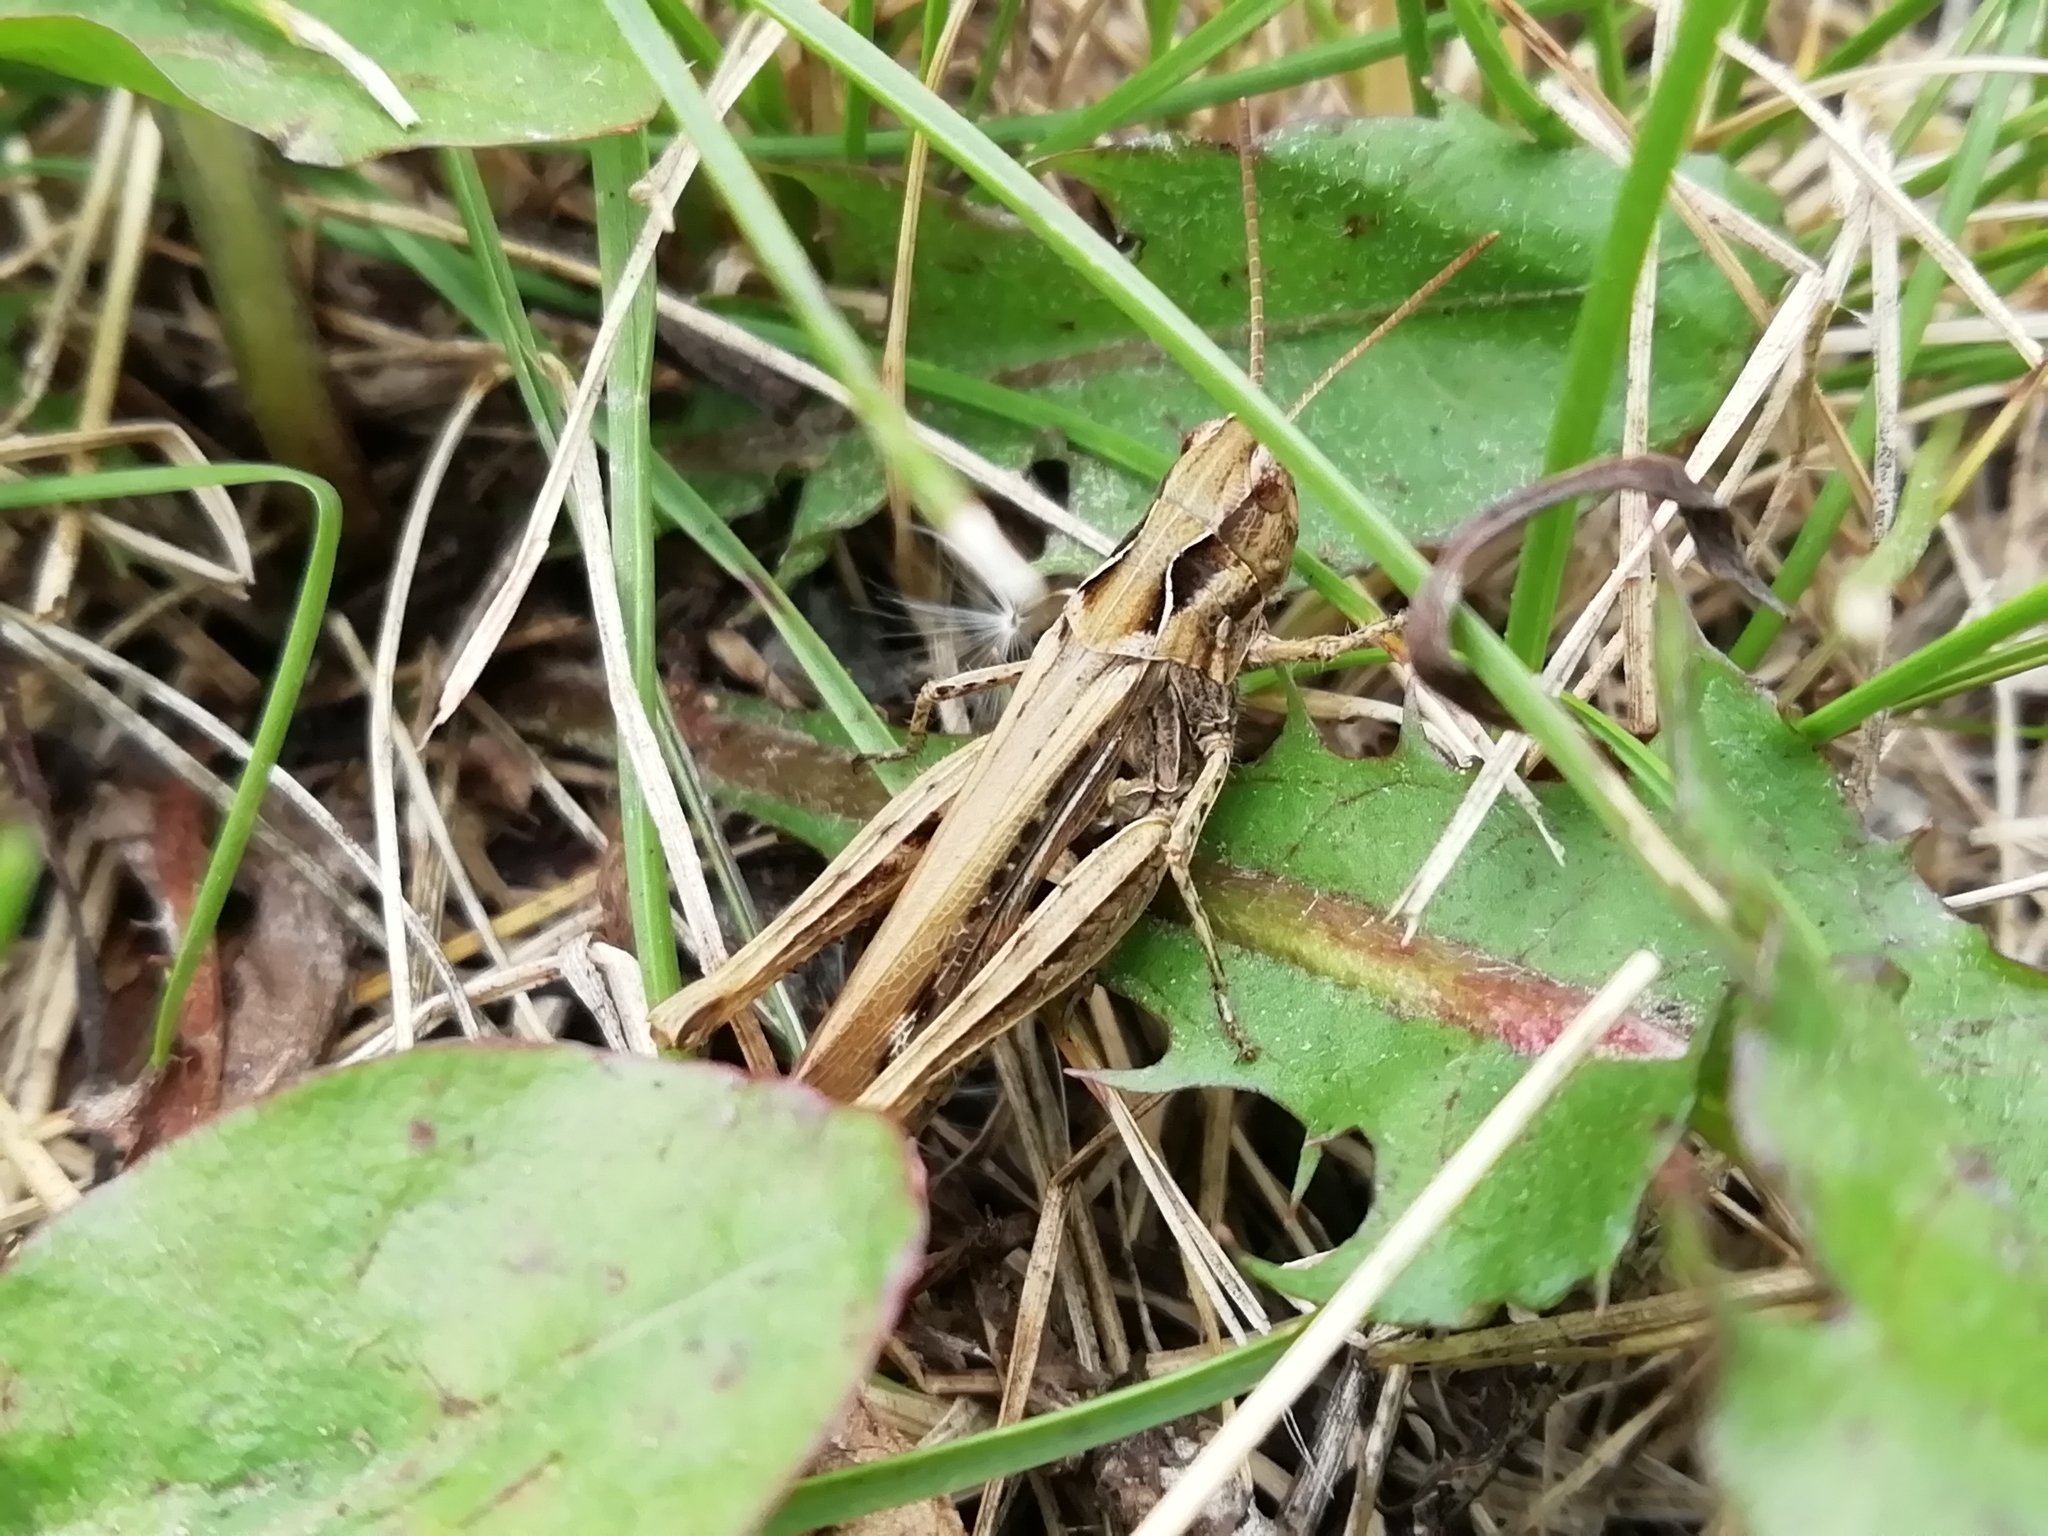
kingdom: Animalia
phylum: Arthropoda
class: Insecta
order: Orthoptera
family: Acrididae
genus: Chorthippus
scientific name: Chorthippus biguttulus
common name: Bow-winged grasshopper
